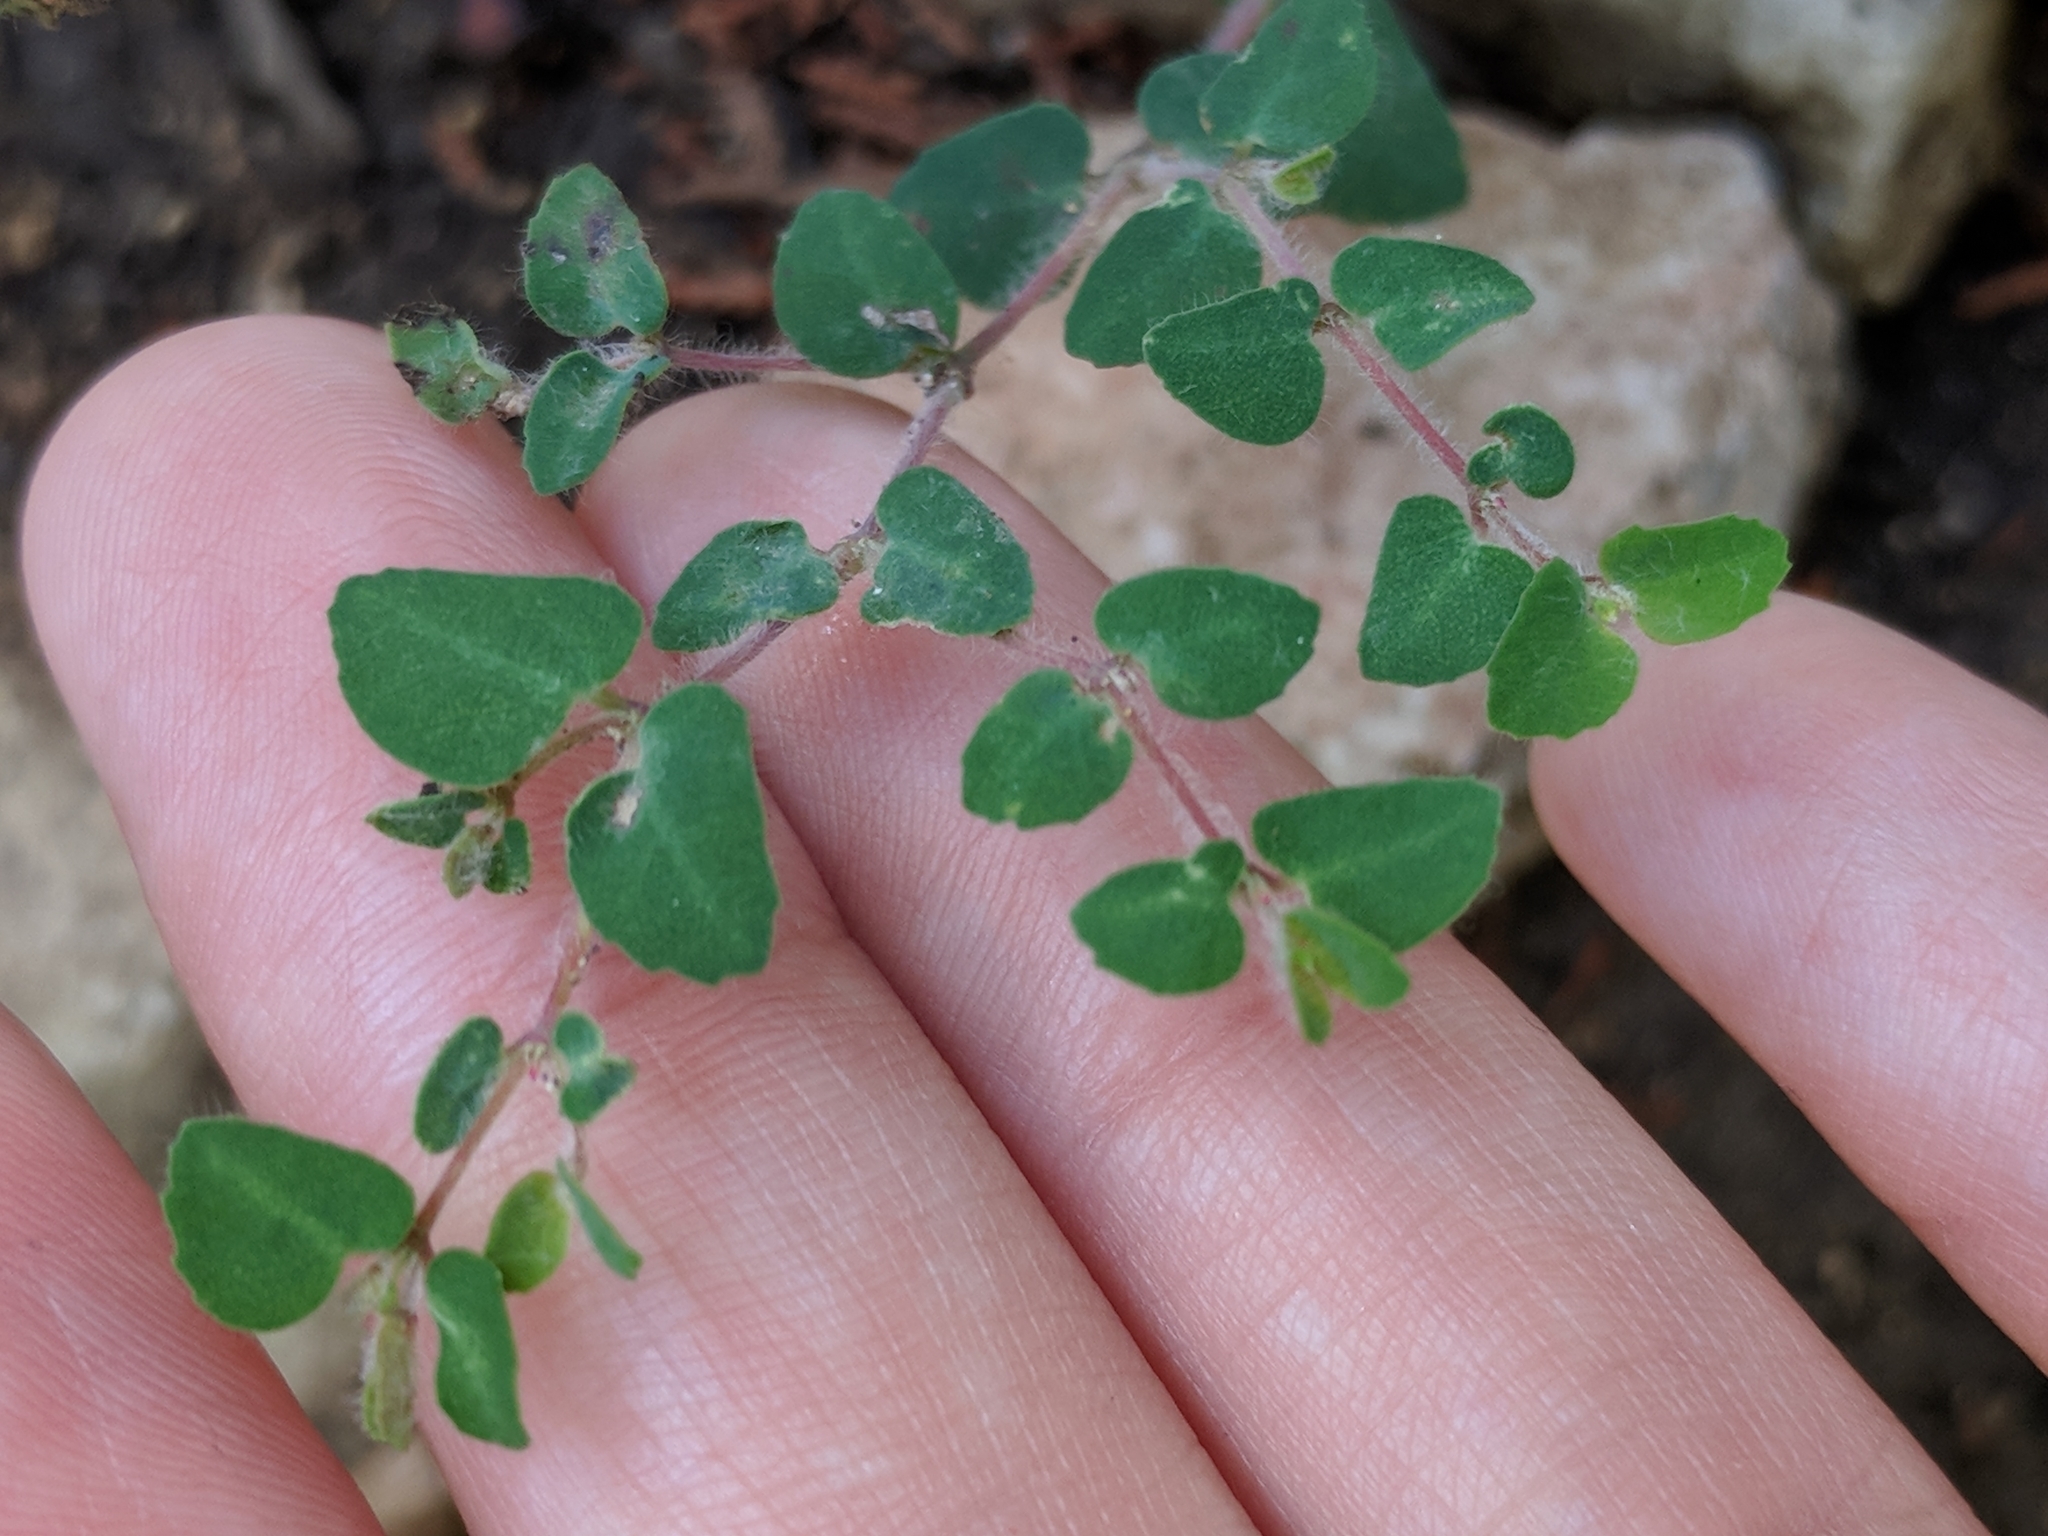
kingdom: Plantae
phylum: Tracheophyta
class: Magnoliopsida
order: Malpighiales
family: Euphorbiaceae
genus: Euphorbia
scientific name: Euphorbia villifera
